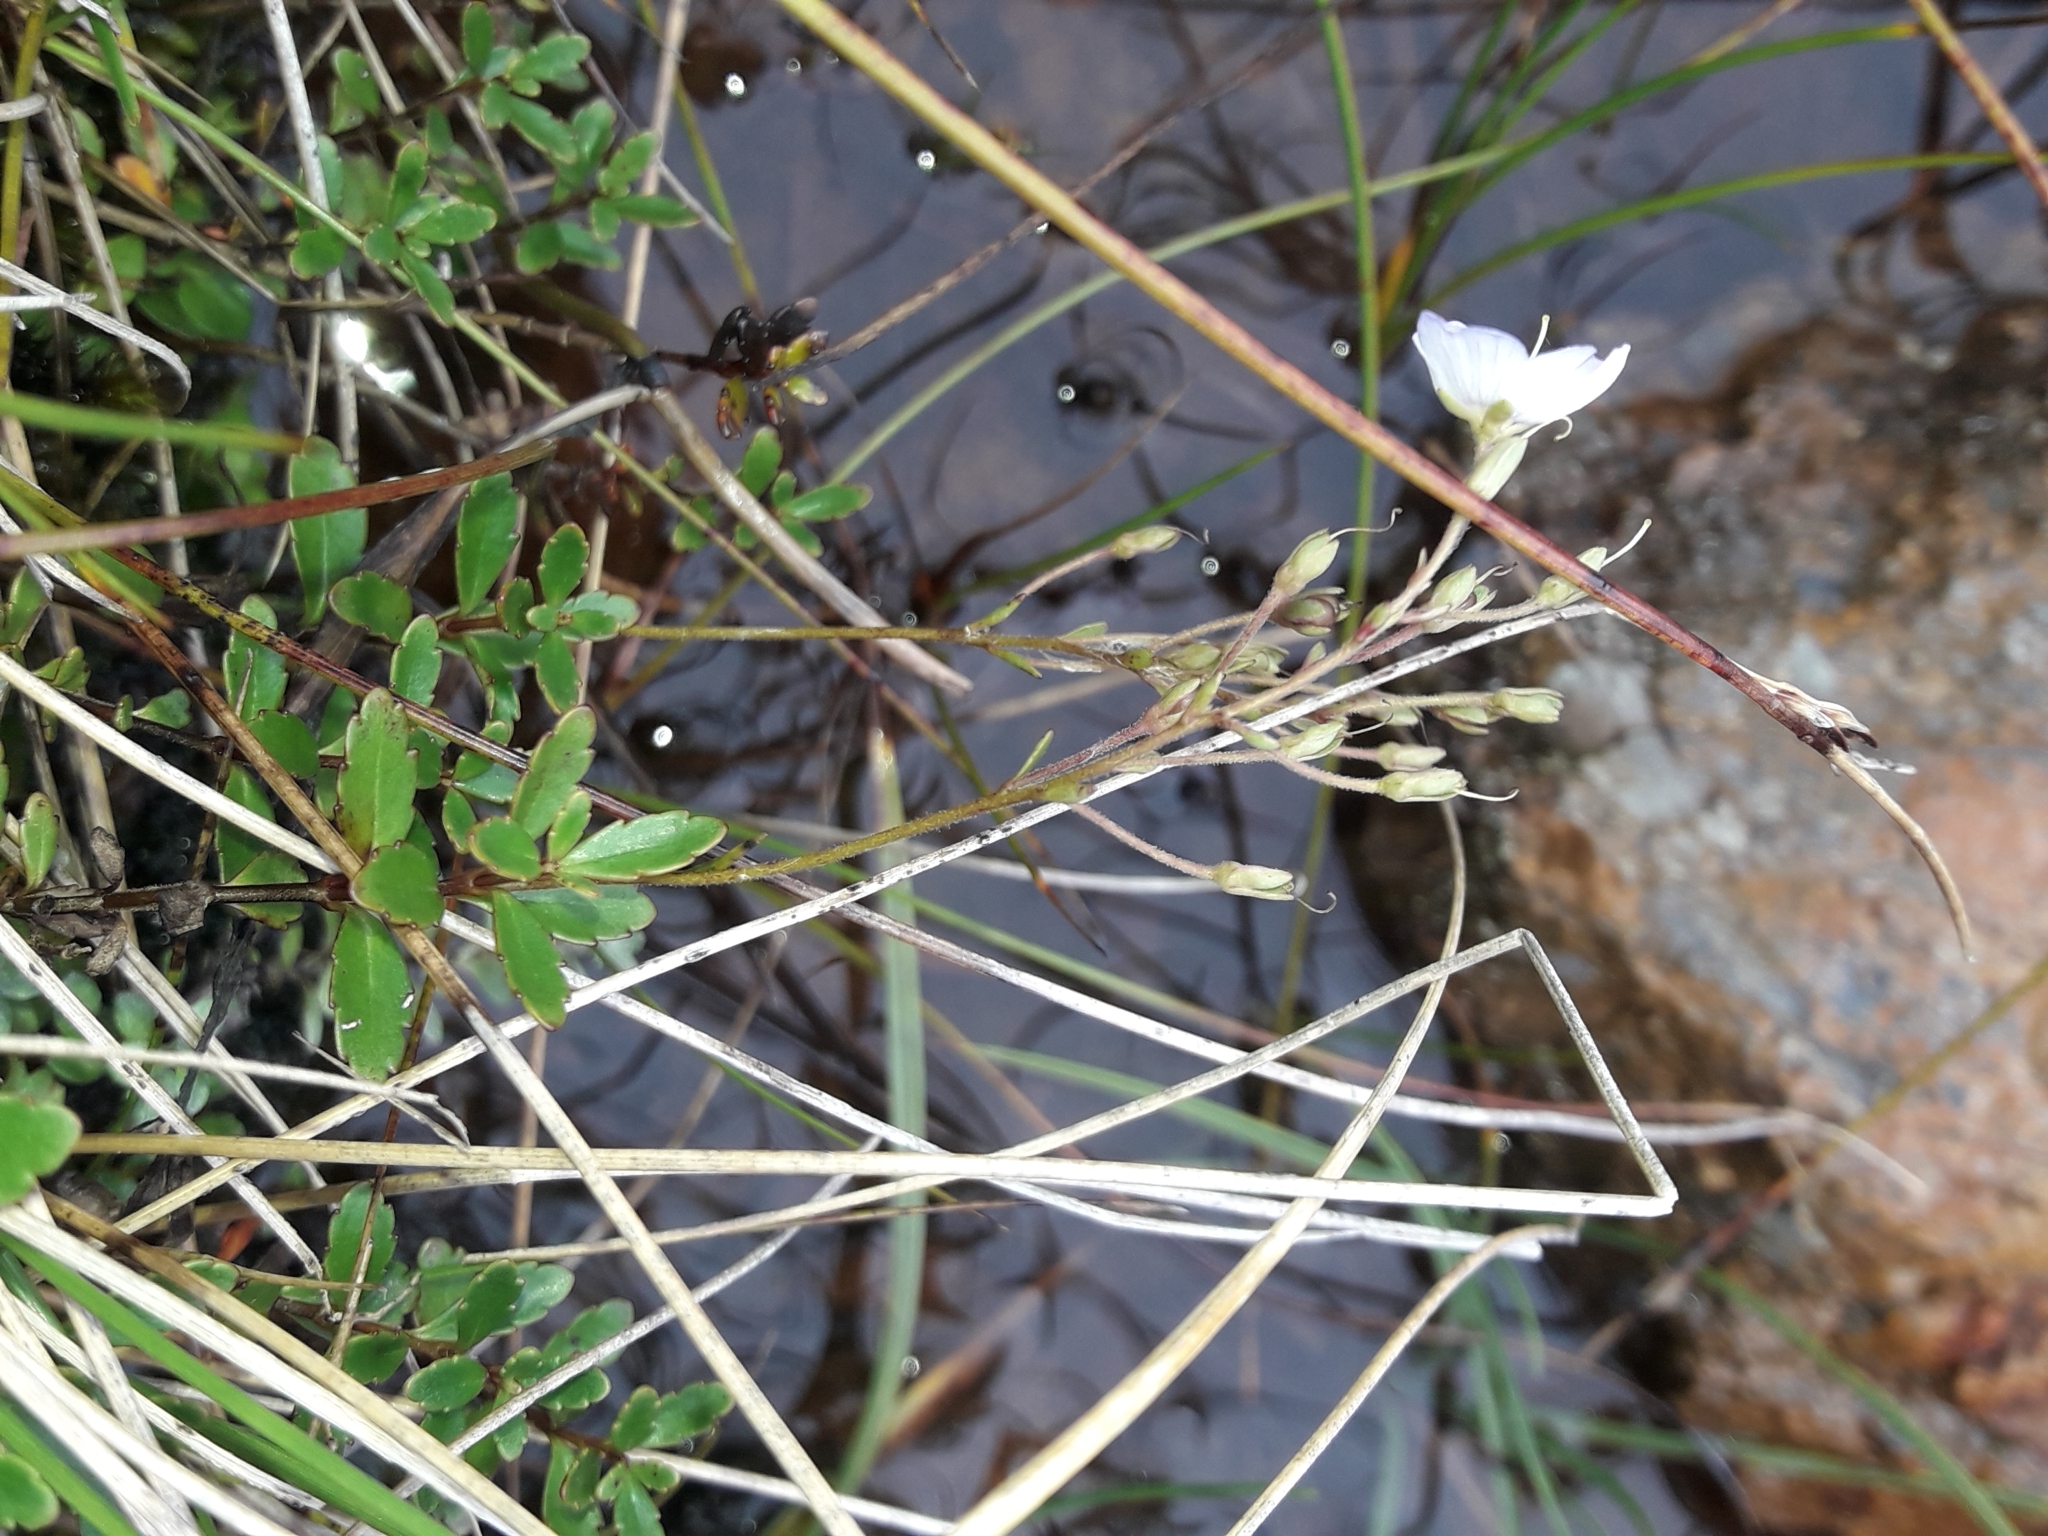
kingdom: Plantae
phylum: Tracheophyta
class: Magnoliopsida
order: Lamiales
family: Plantaginaceae
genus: Veronica
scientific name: Veronica lyallii
